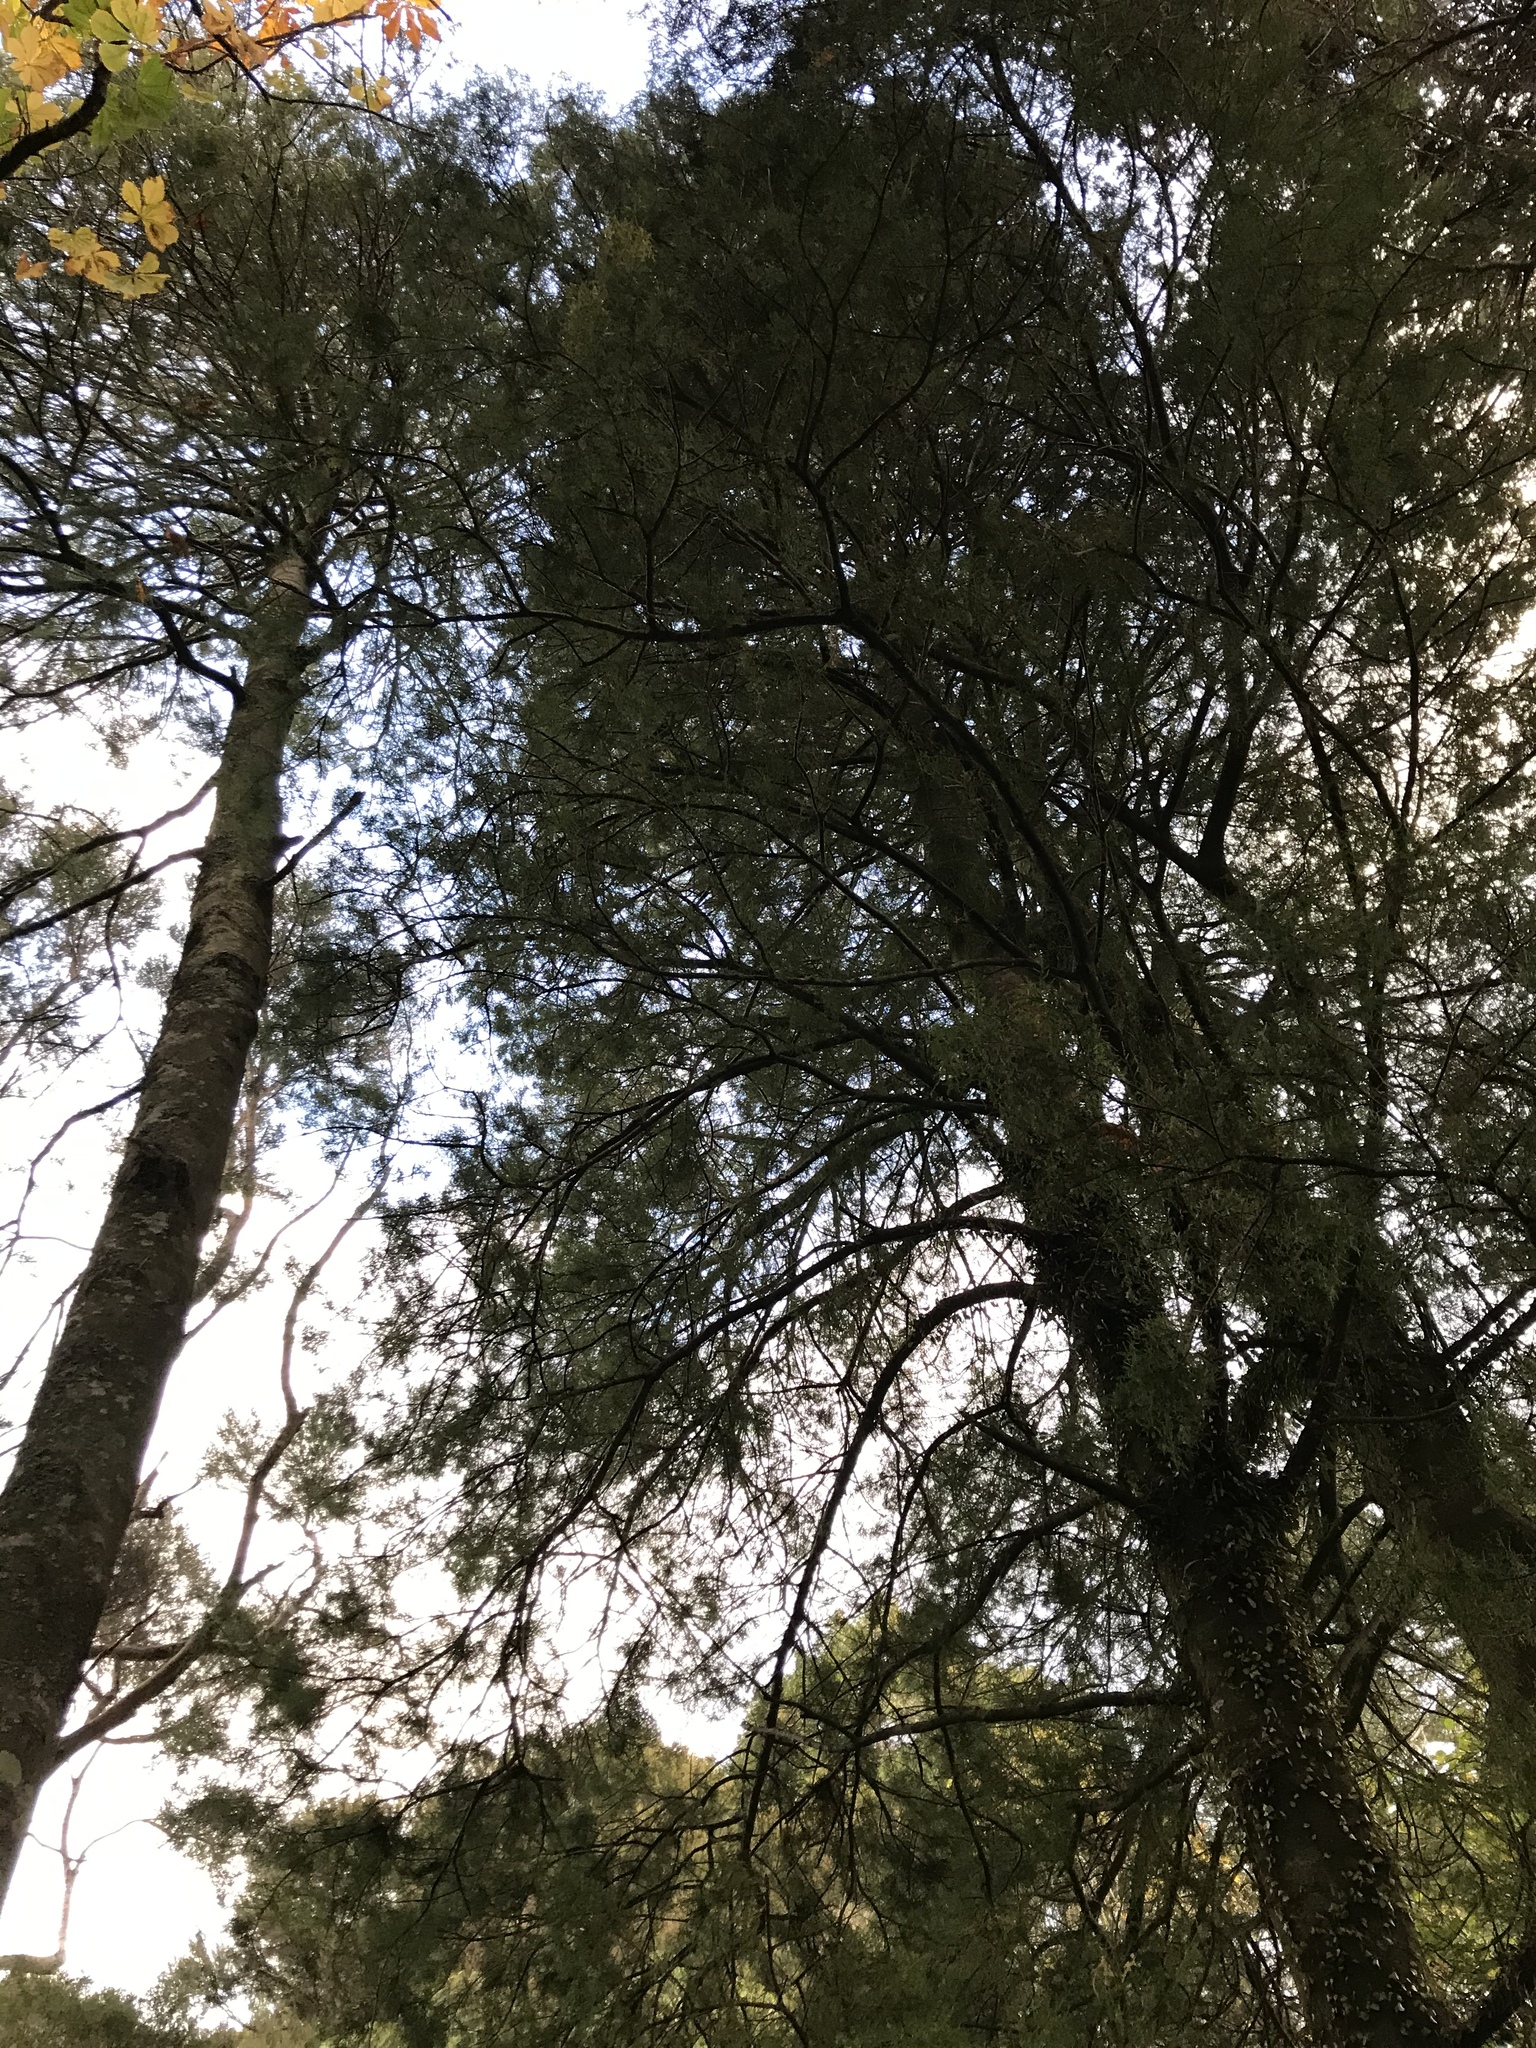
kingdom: Plantae
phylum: Tracheophyta
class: Pinopsida
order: Pinales
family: Podocarpaceae
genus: Dacrycarpus
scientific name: Dacrycarpus dacrydioides
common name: White pine
